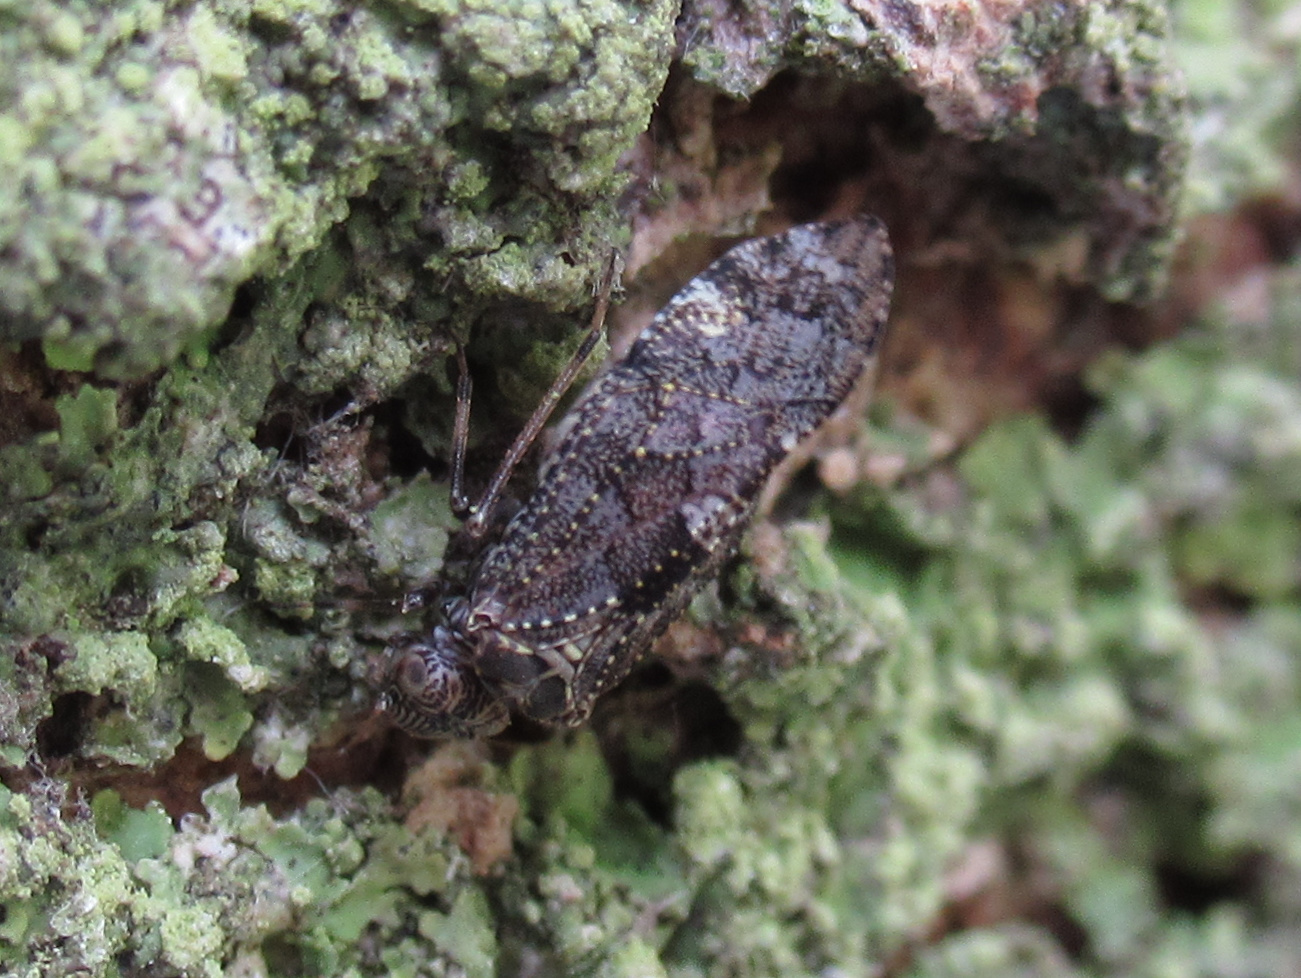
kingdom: Animalia
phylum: Arthropoda
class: Insecta
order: Psocodea
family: Myopsocidae
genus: Nimbopsocus
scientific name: Nimbopsocus australis
